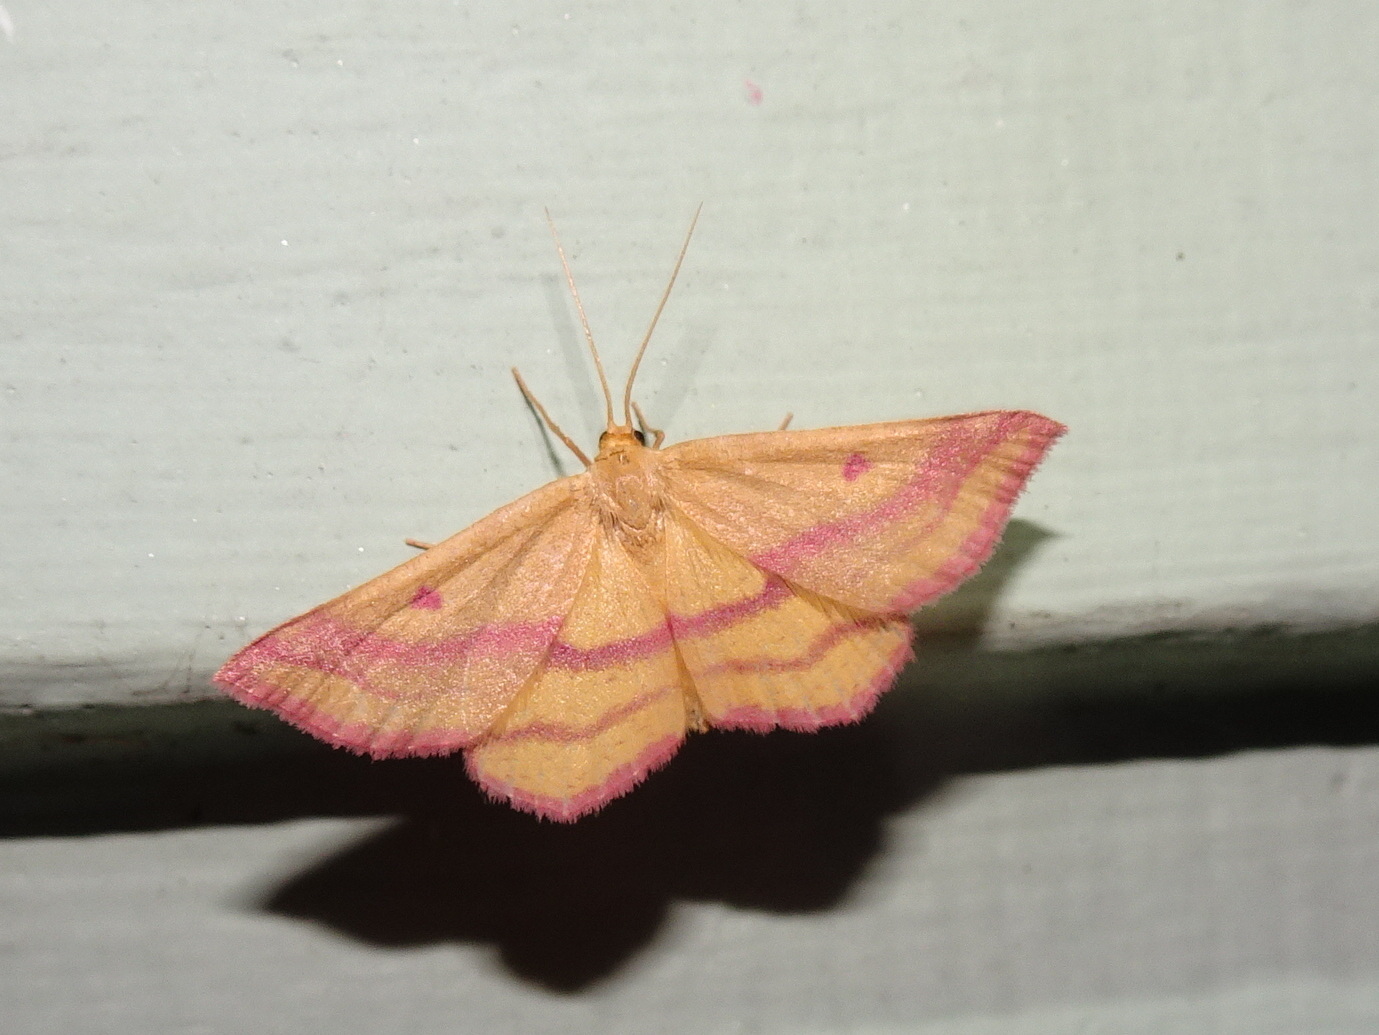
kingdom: Animalia
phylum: Arthropoda
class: Insecta
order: Lepidoptera
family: Geometridae
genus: Haematopis
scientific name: Haematopis grataria
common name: Chickweed geometer
